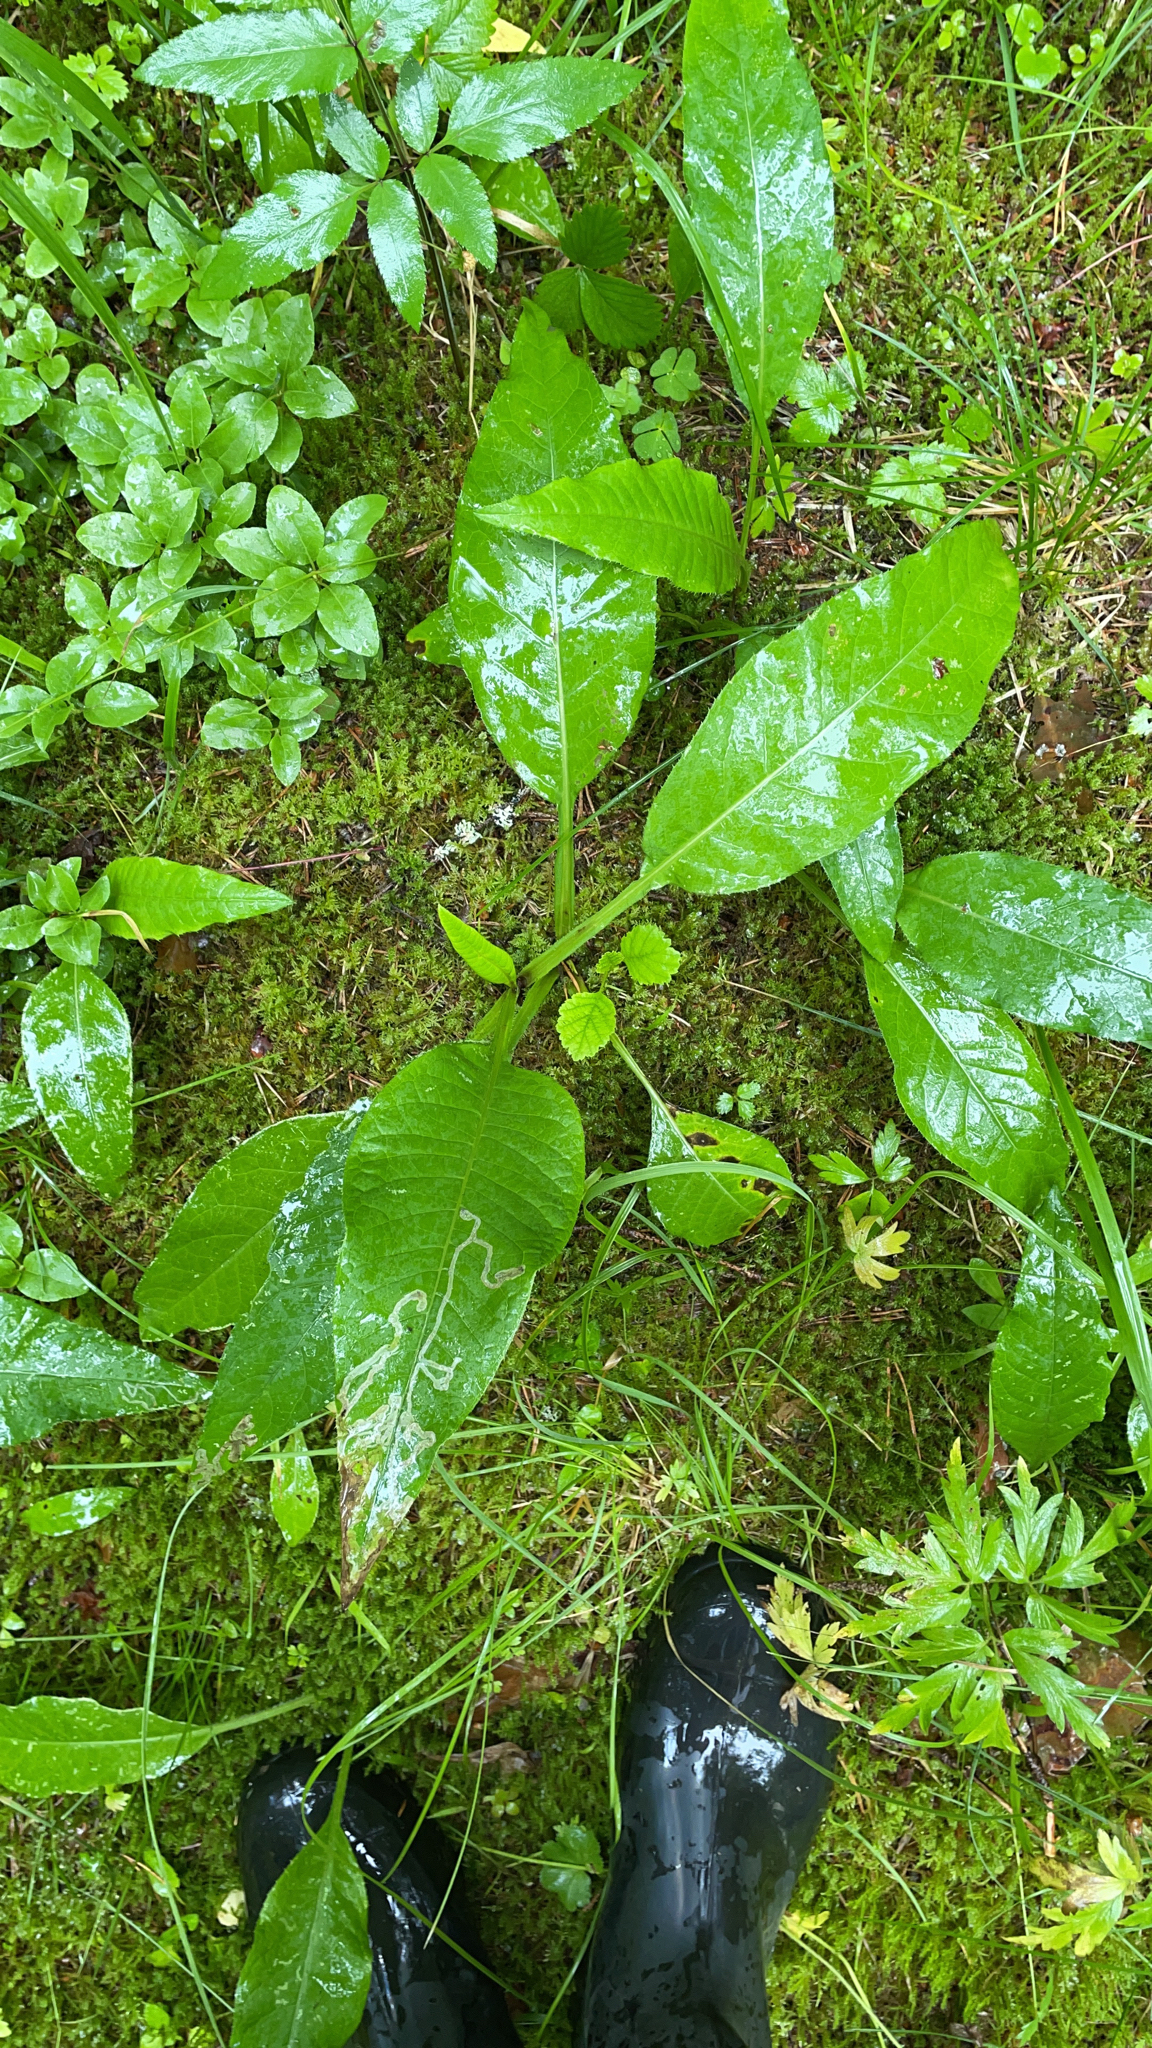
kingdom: Plantae
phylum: Tracheophyta
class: Magnoliopsida
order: Asterales
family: Asteraceae
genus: Cirsium
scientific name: Cirsium heterophyllum
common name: Melancholy thistle
